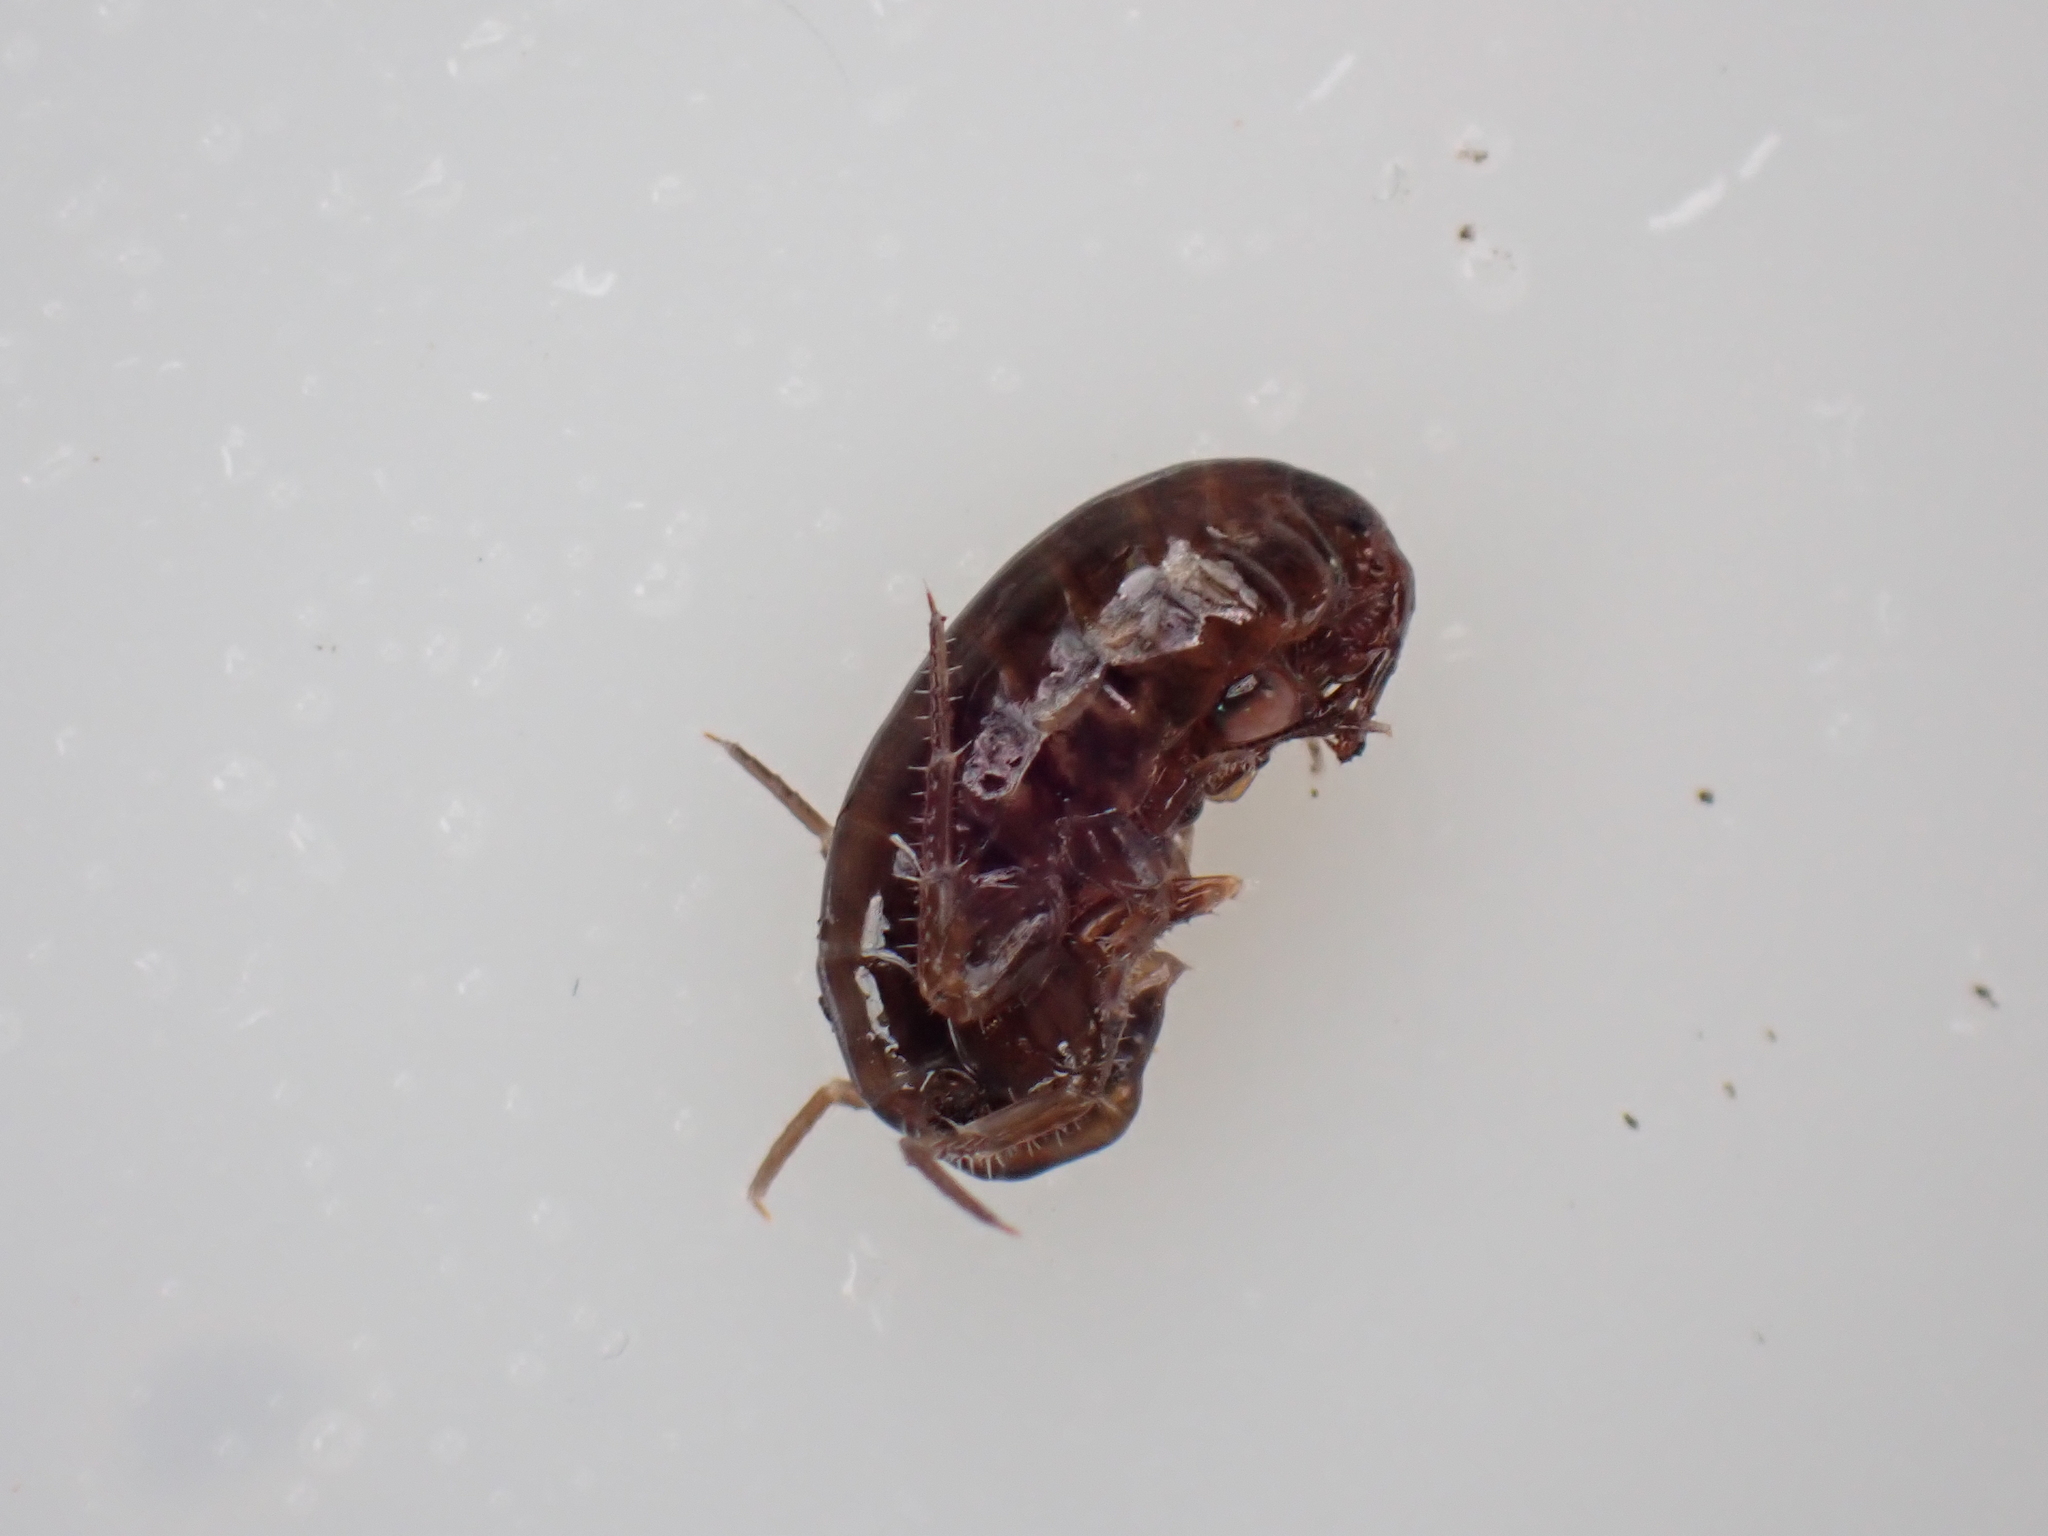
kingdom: Animalia
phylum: Arthropoda
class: Malacostraca
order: Amphipoda
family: Arcitalitridae
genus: Arcitalitrus
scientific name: Arcitalitrus dorrieni
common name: Landhopper
